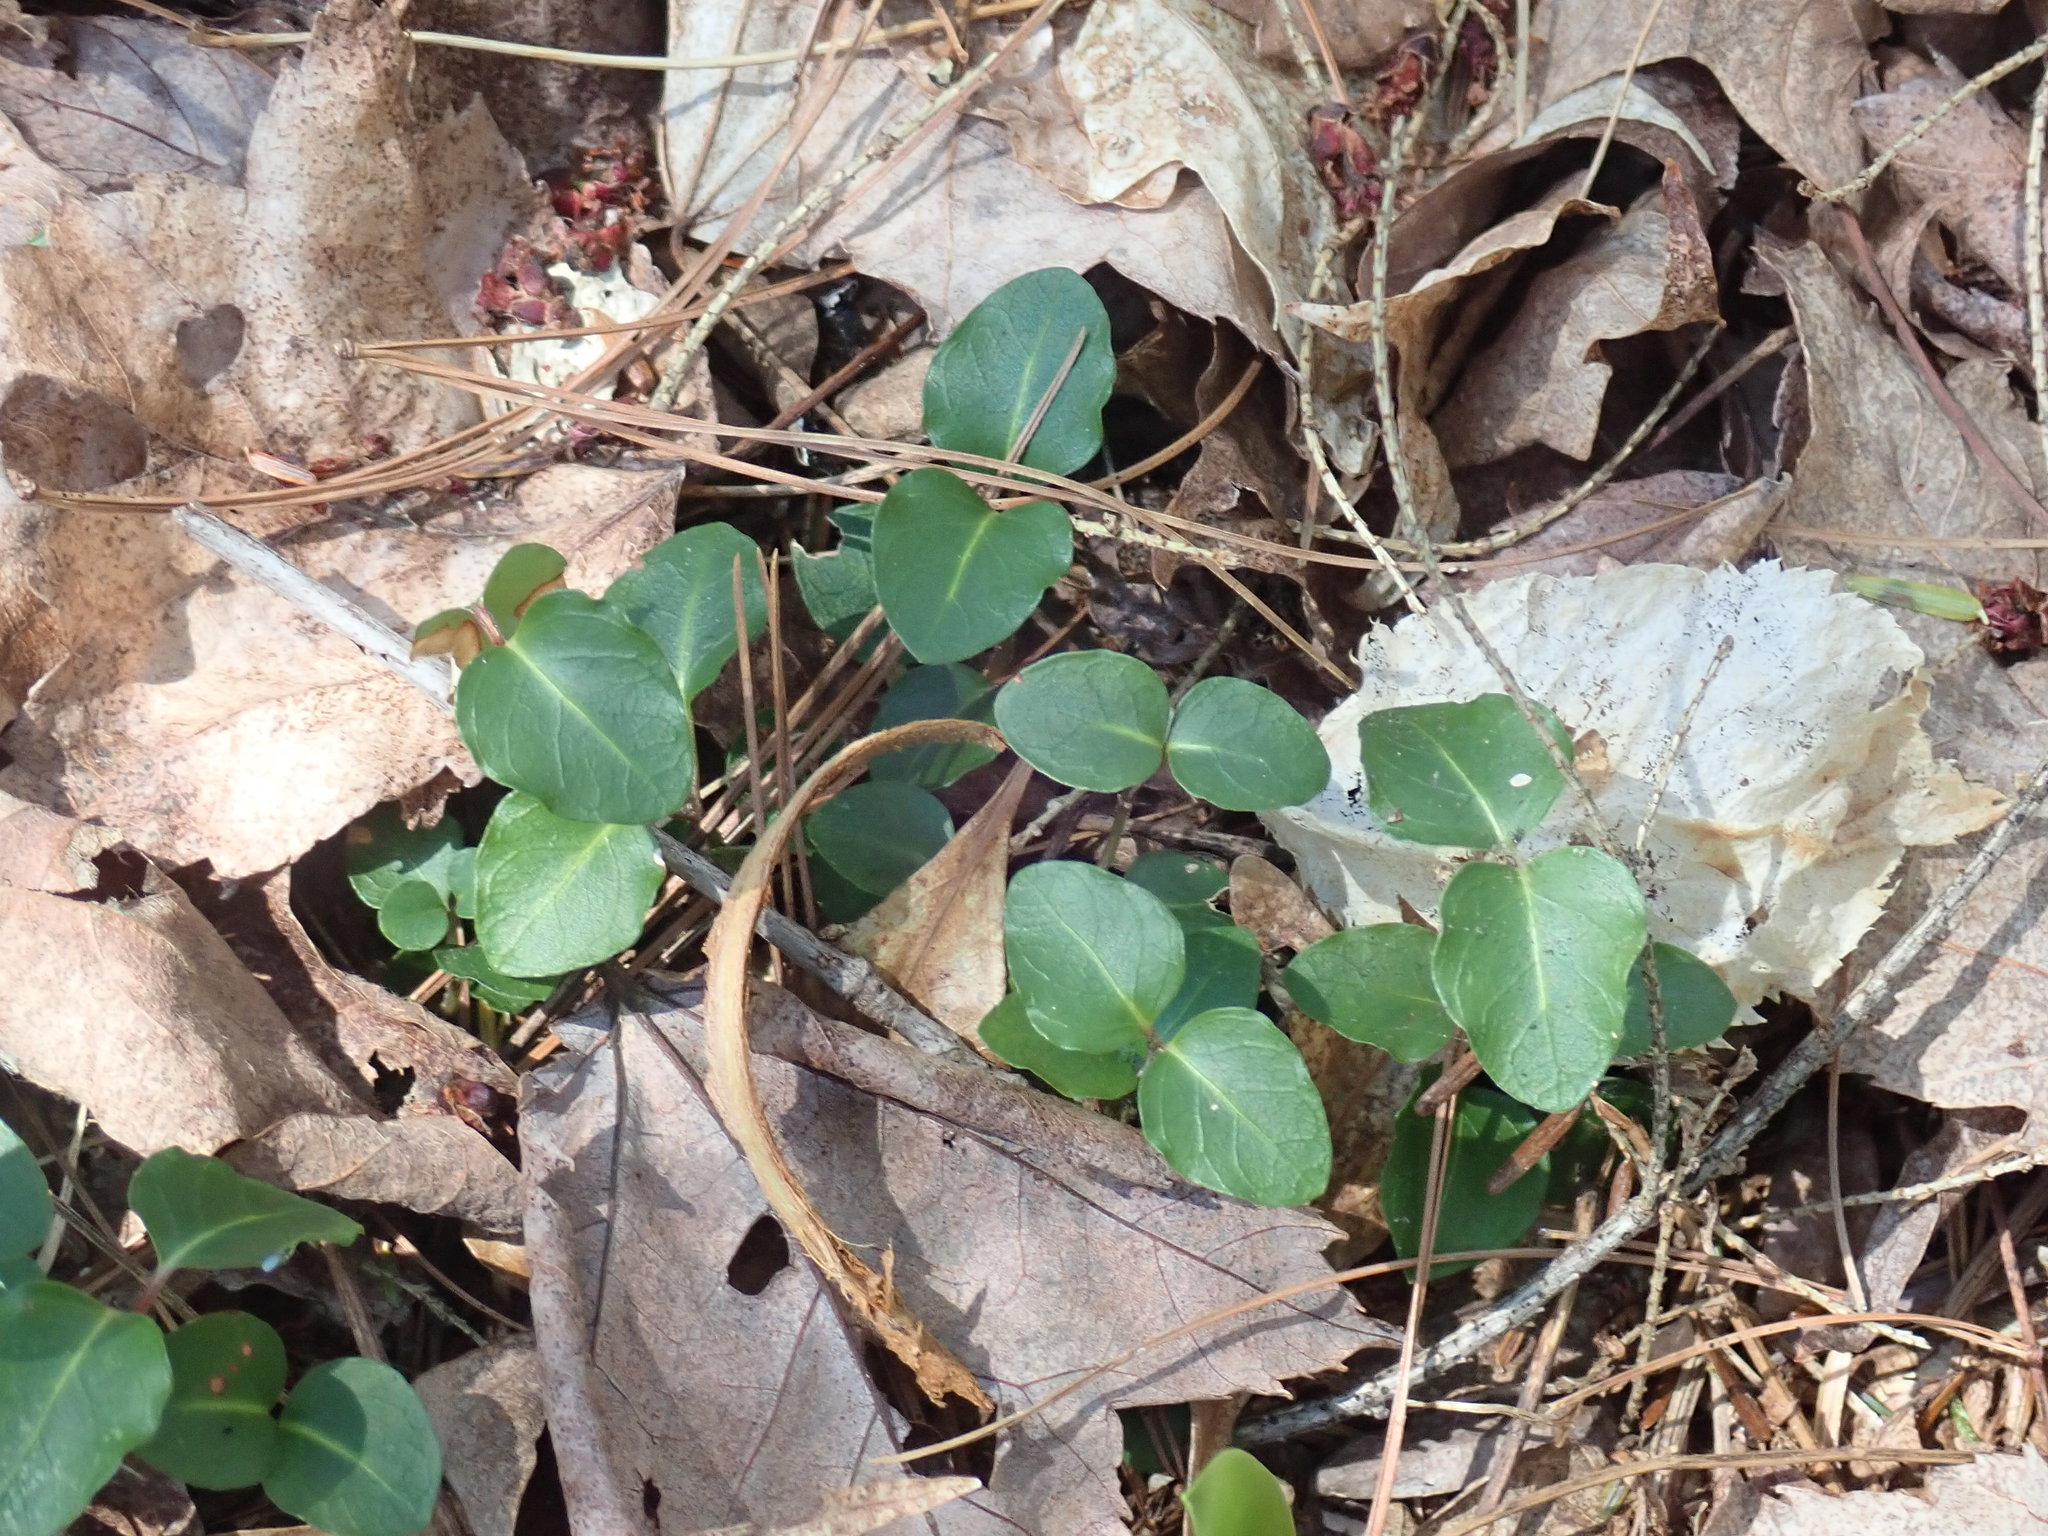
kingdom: Plantae
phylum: Tracheophyta
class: Magnoliopsida
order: Gentianales
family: Rubiaceae
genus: Mitchella
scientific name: Mitchella repens
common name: Partridge-berry
